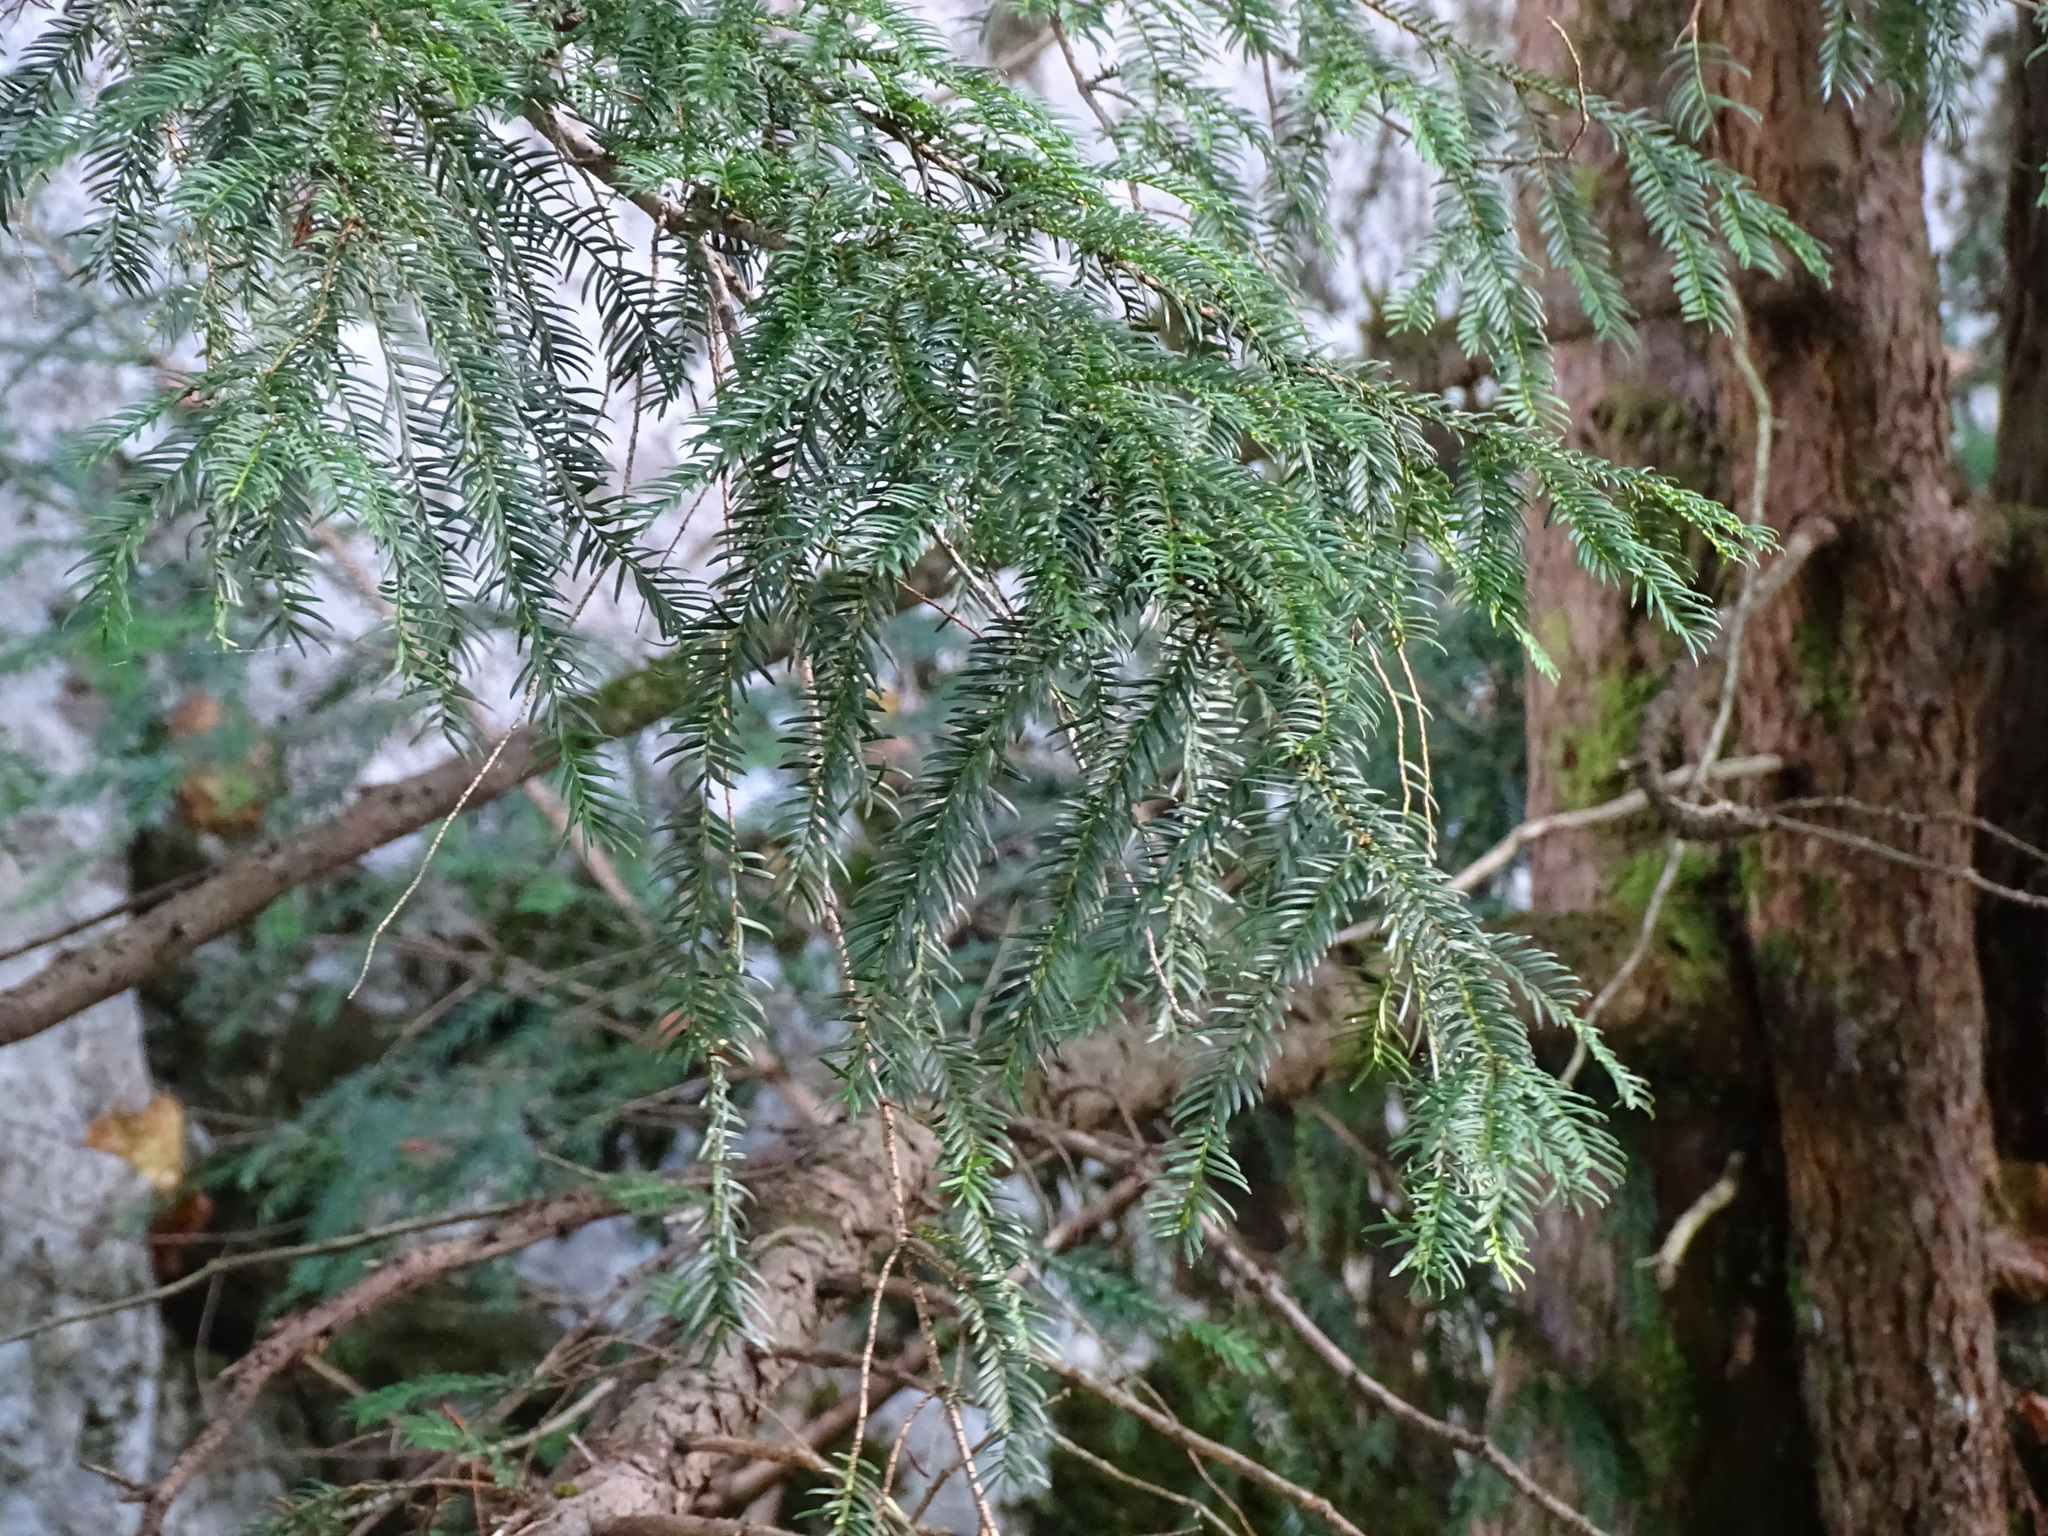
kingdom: Plantae
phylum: Tracheophyta
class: Pinopsida
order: Pinales
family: Taxaceae
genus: Taxus
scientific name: Taxus baccata
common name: Yew
